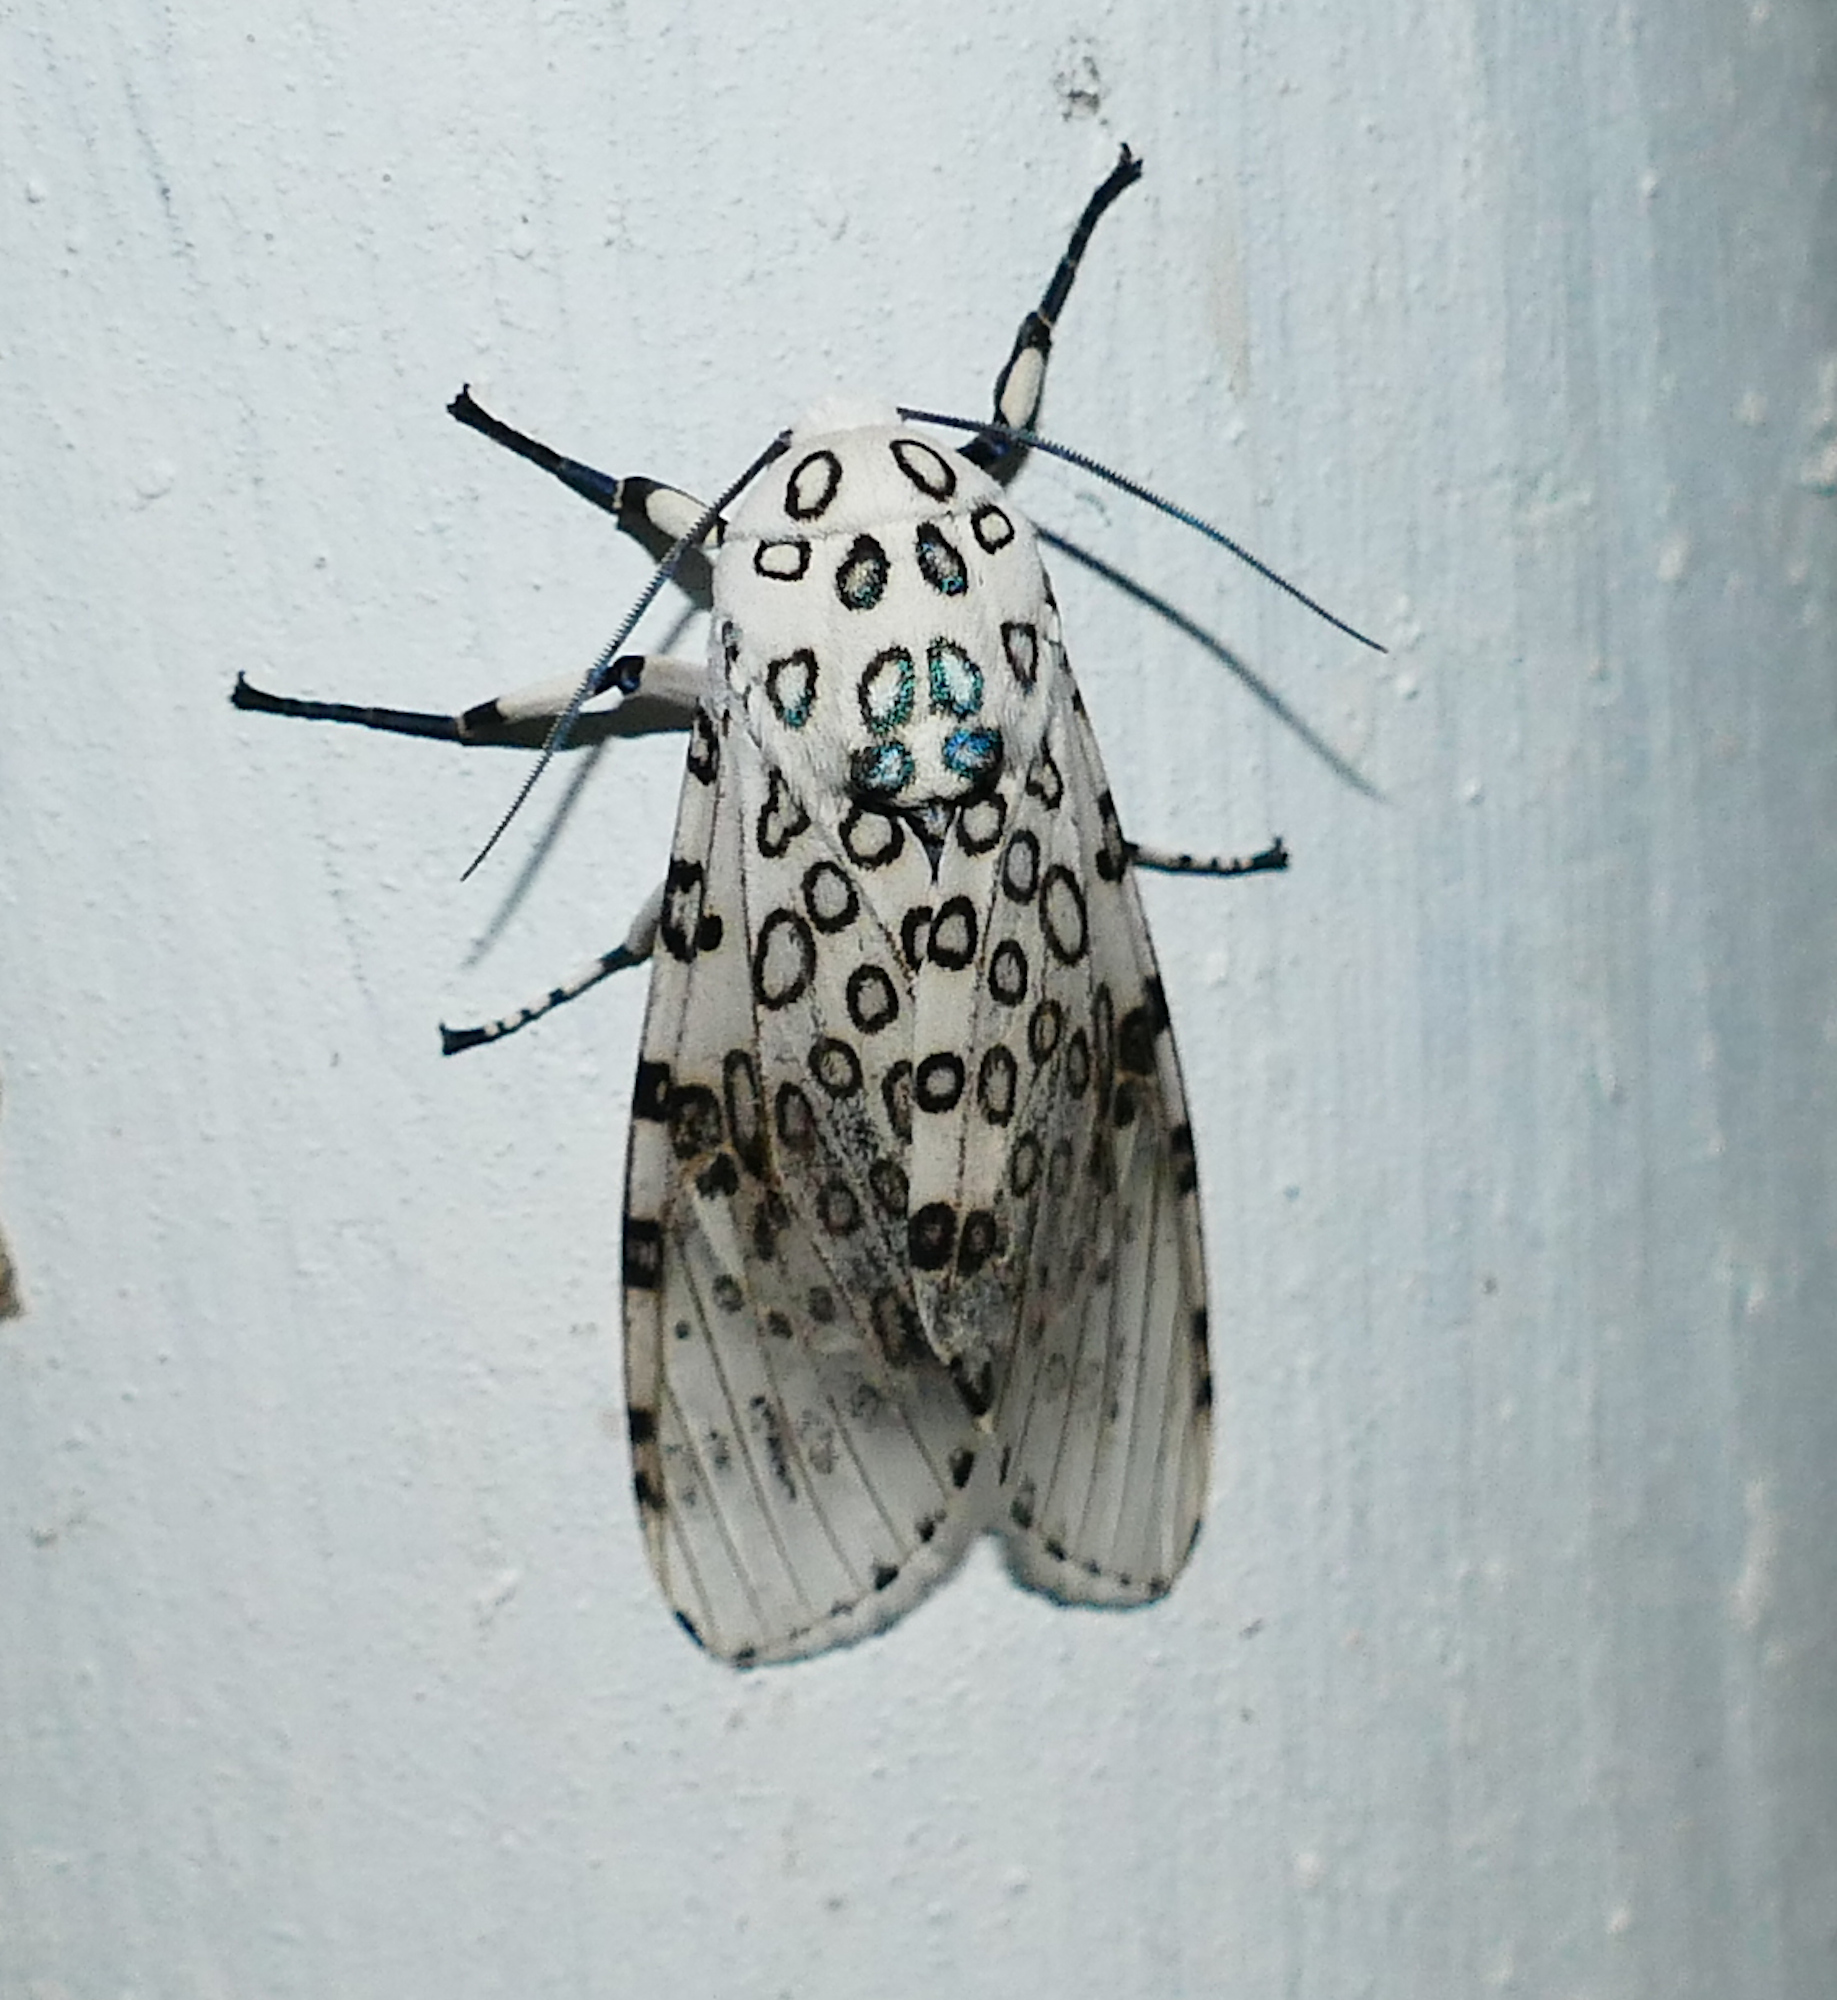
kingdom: Animalia
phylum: Arthropoda
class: Insecta
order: Lepidoptera
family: Erebidae
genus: Hypercompe
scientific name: Hypercompe scribonia
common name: Giant leopard moth
